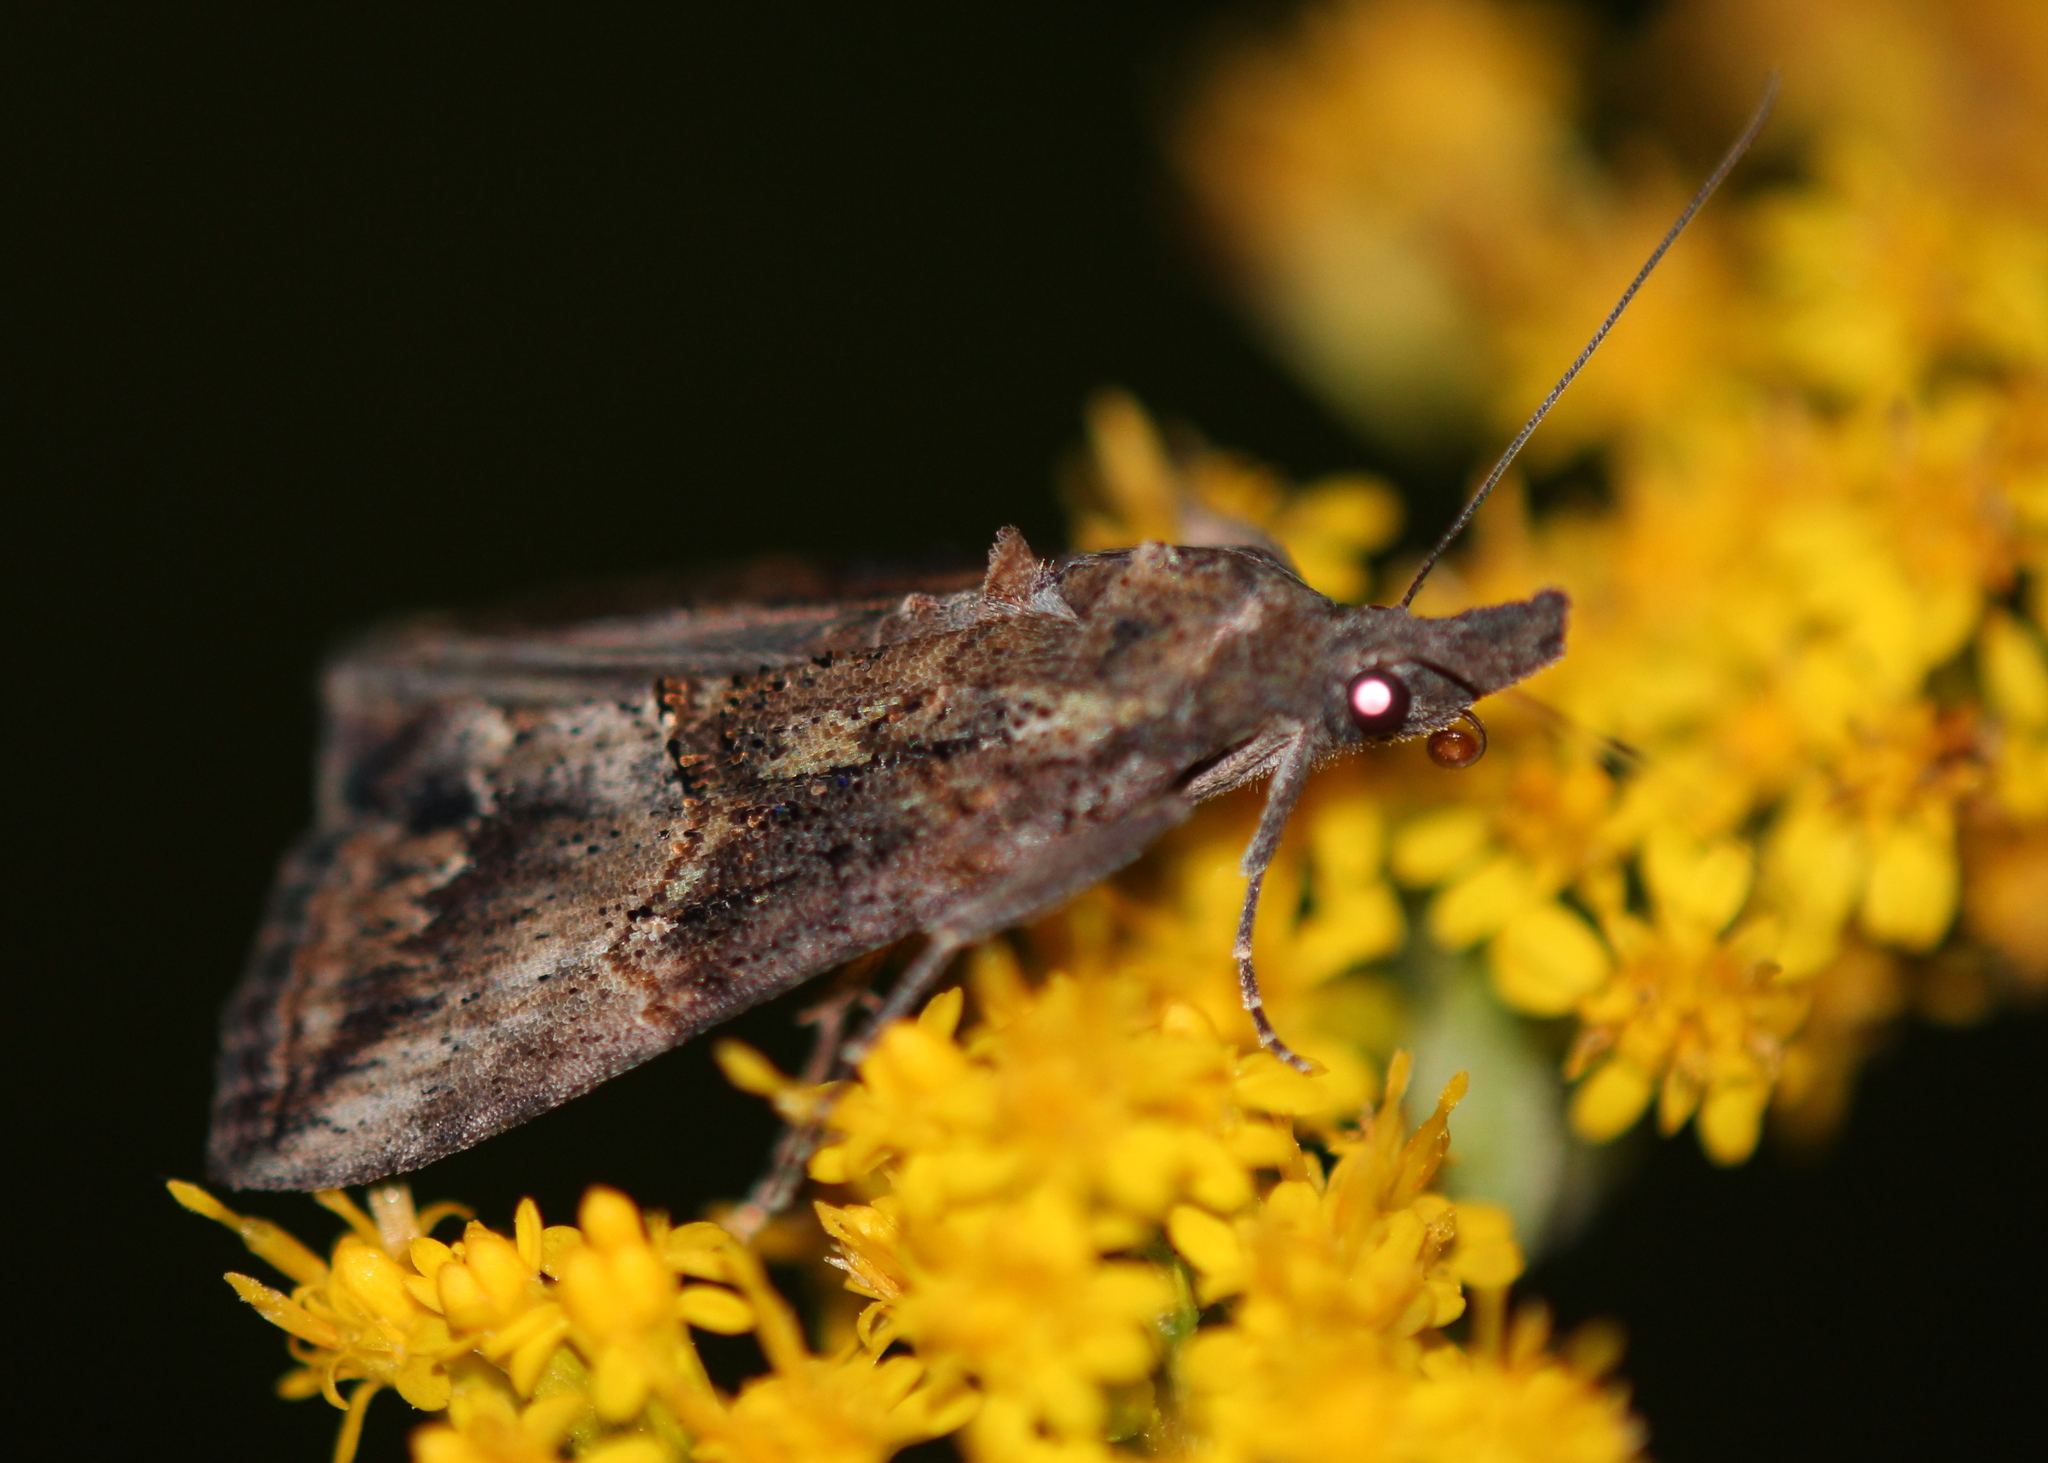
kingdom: Animalia
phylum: Arthropoda
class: Insecta
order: Lepidoptera
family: Erebidae
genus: Hypena
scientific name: Hypena scabra
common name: Green cloverworm
